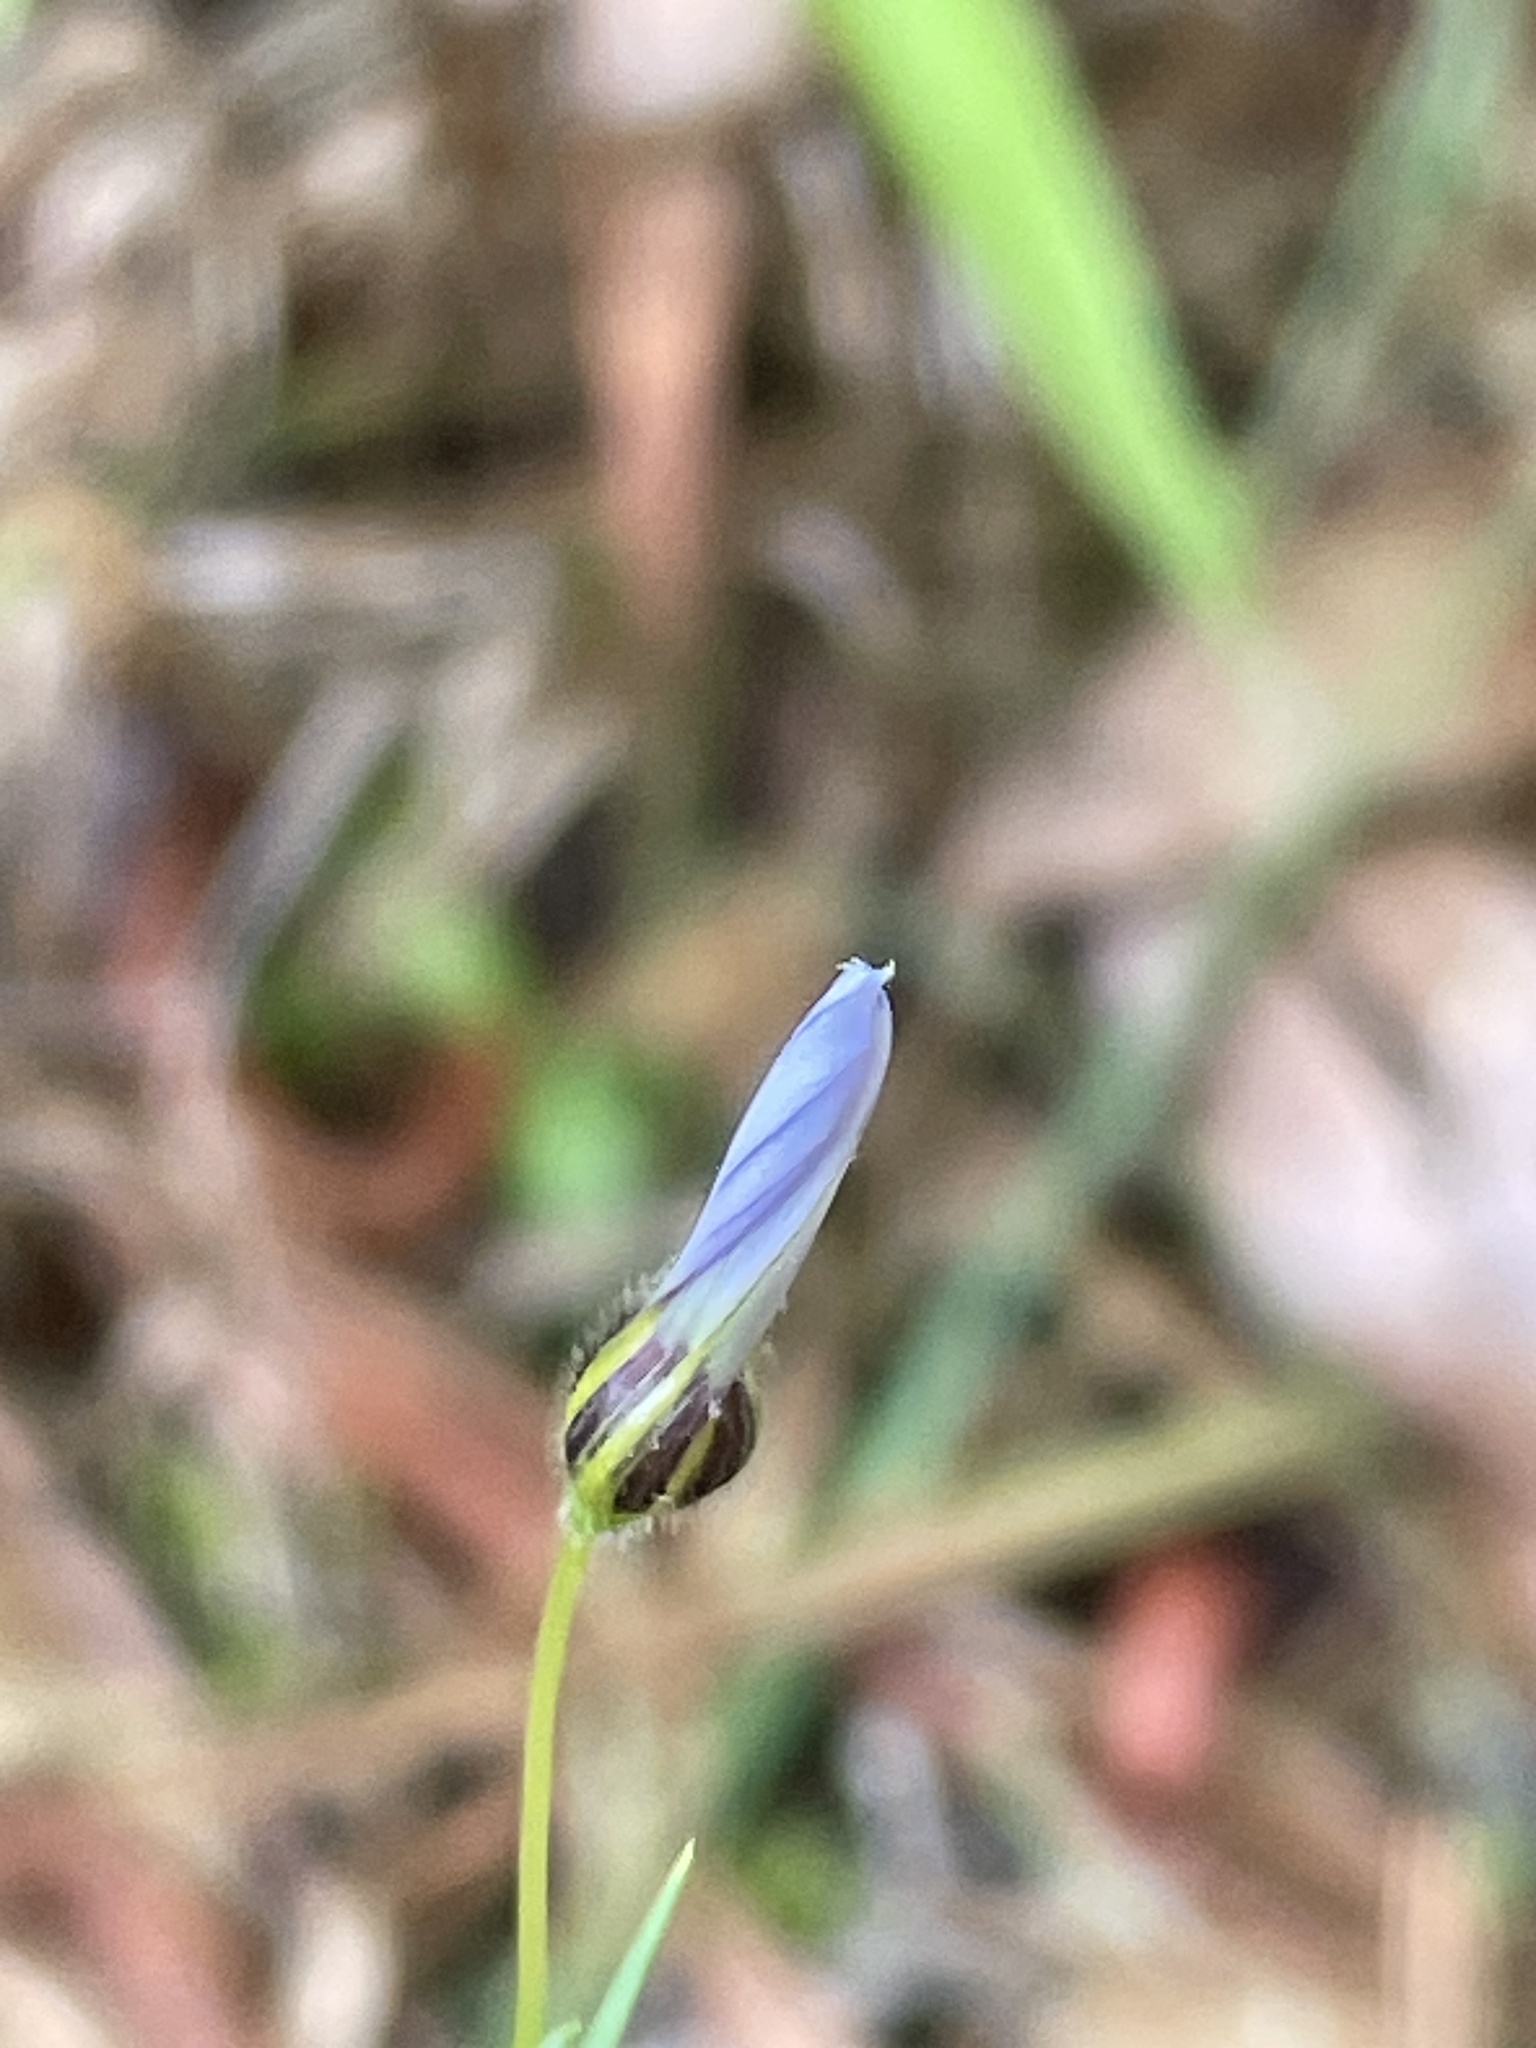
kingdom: Plantae
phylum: Tracheophyta
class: Liliopsida
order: Asparagales
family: Iridaceae
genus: Sisyrinchium
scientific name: Sisyrinchium micranthum
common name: Bermuda pigroot
